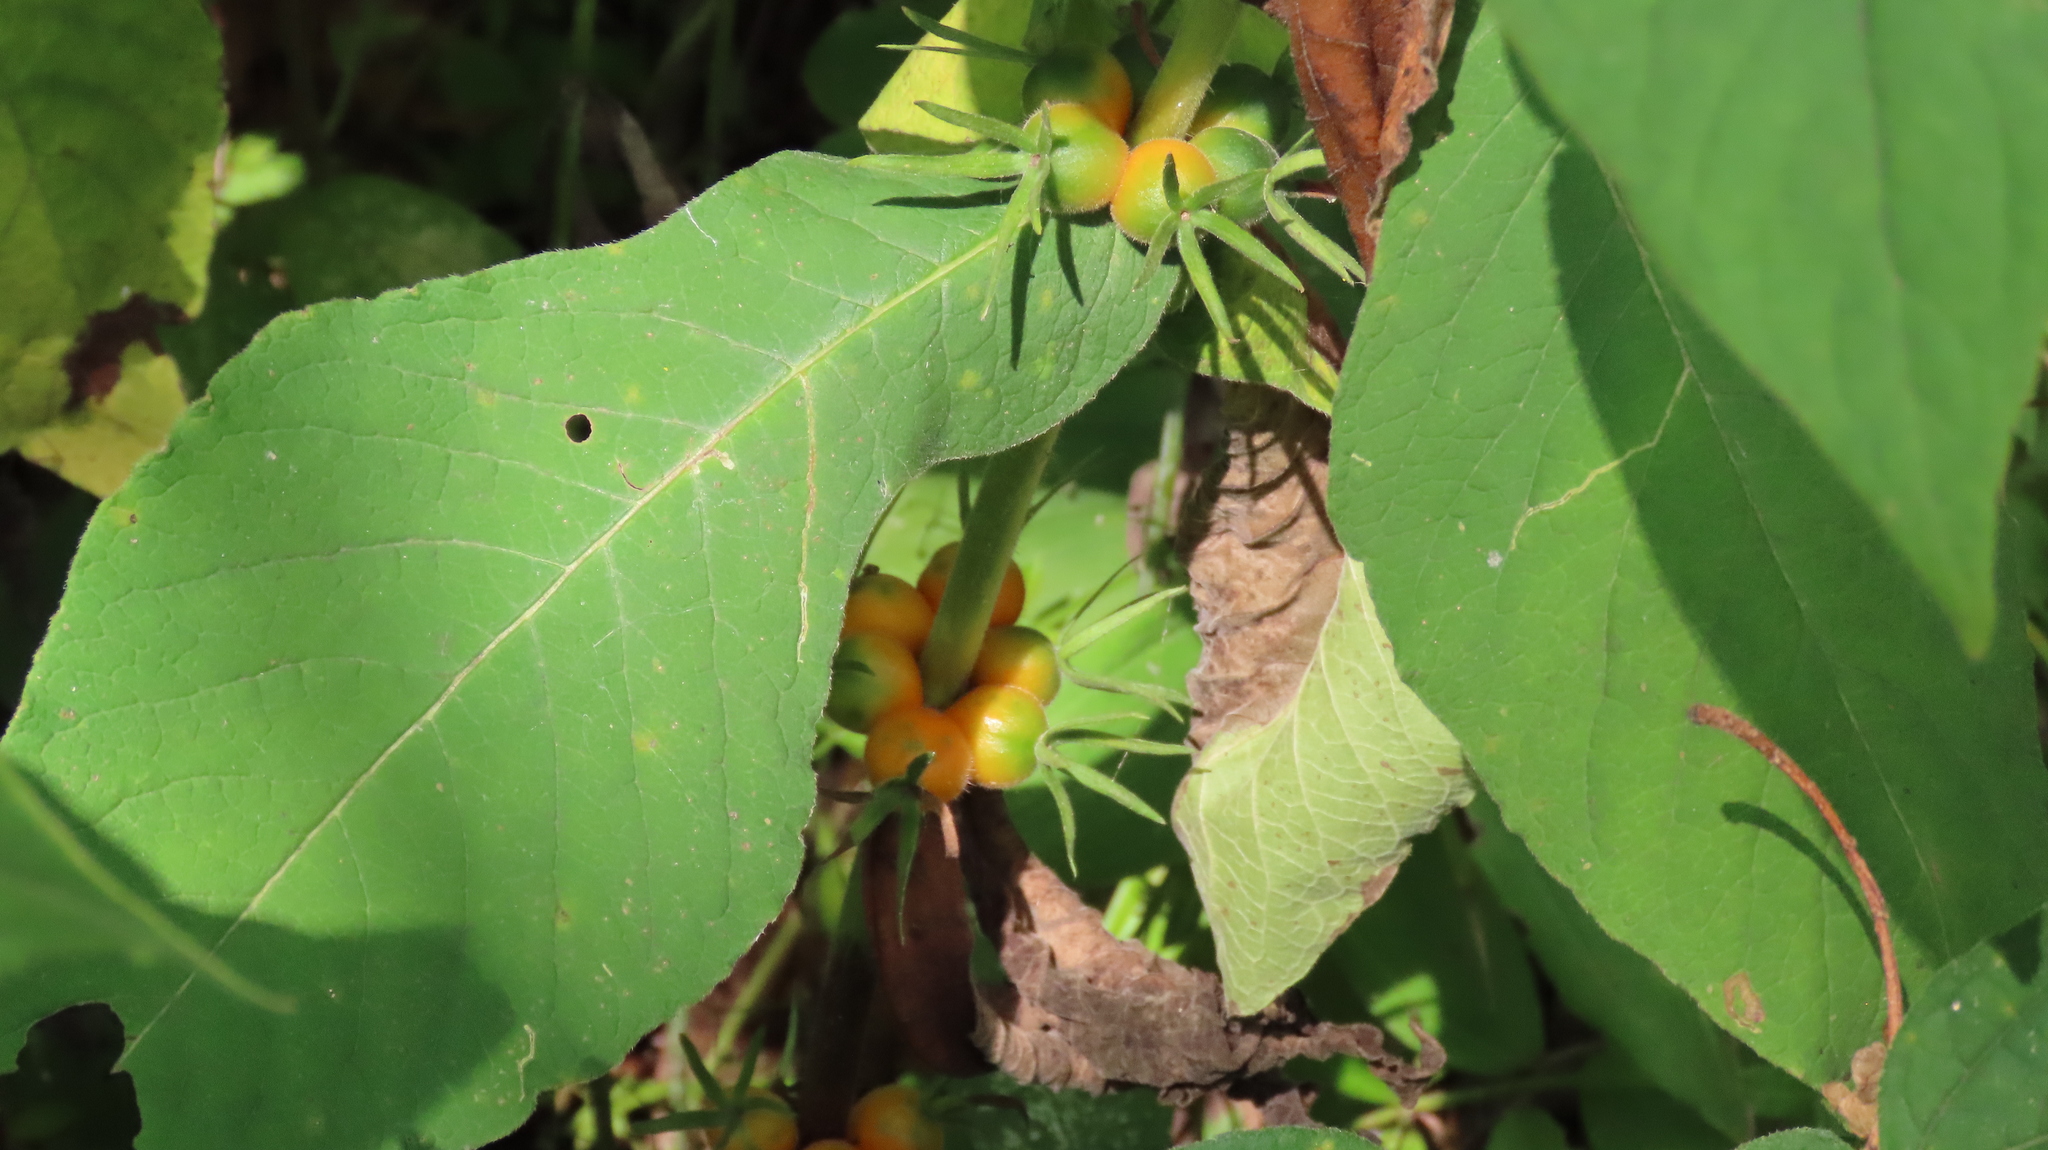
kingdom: Plantae
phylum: Tracheophyta
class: Magnoliopsida
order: Dipsacales
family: Caprifoliaceae
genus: Triosteum
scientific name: Triosteum aurantiacum
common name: Coffee tinker's-weed
